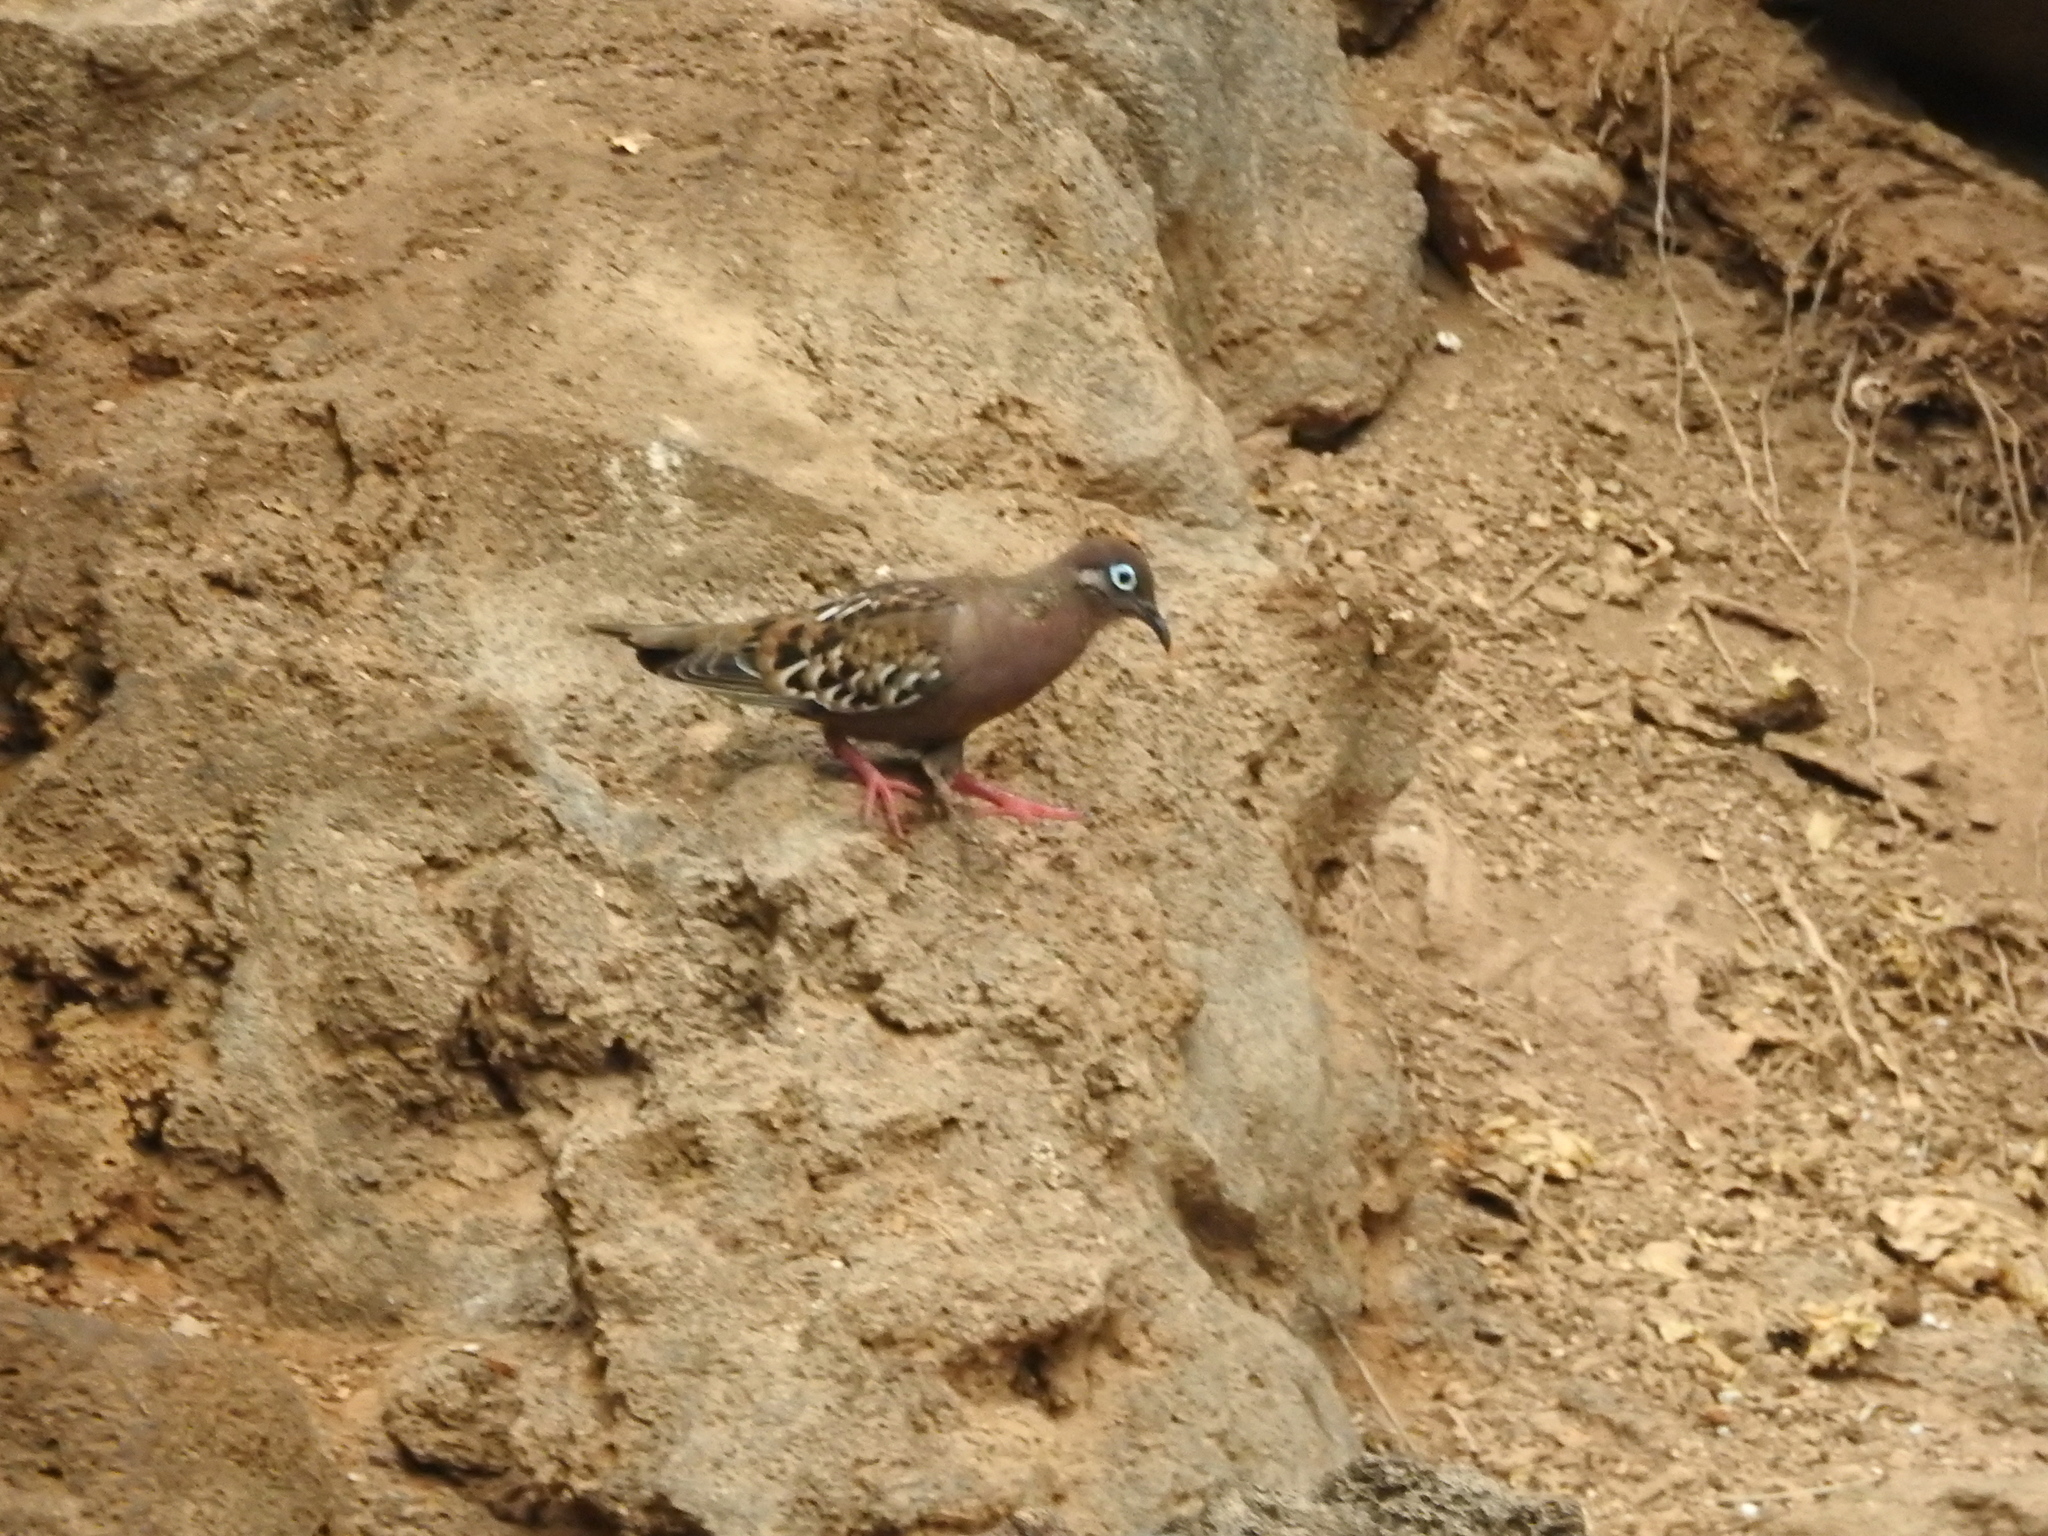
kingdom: Animalia
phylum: Chordata
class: Aves
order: Columbiformes
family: Columbidae
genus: Zenaida
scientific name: Zenaida galapagoensis
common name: Galapagos dove
